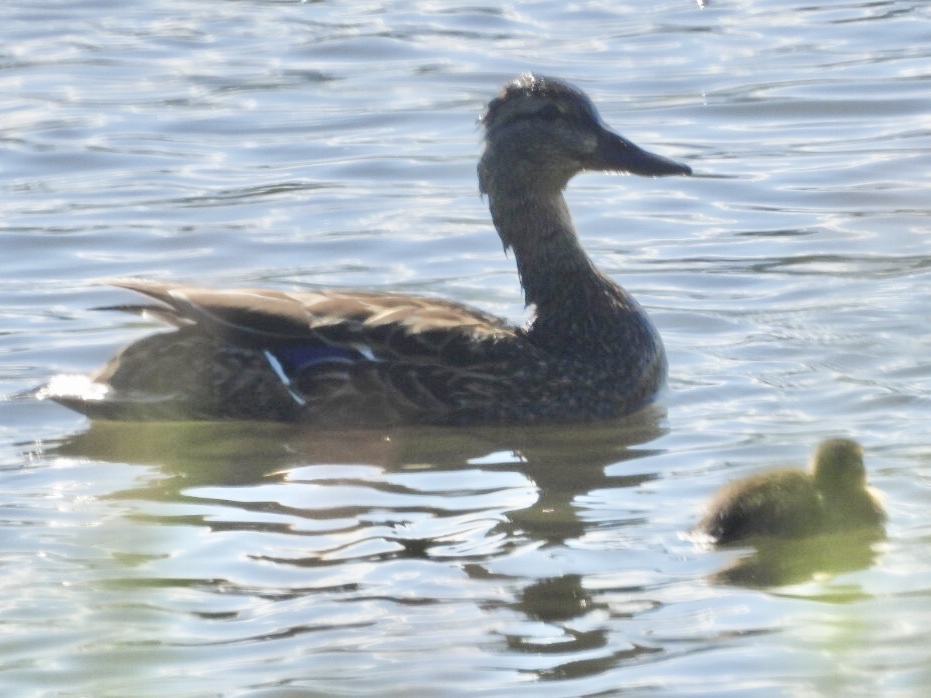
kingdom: Animalia
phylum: Chordata
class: Aves
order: Anseriformes
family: Anatidae
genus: Anas
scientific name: Anas platyrhynchos
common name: Mallard
